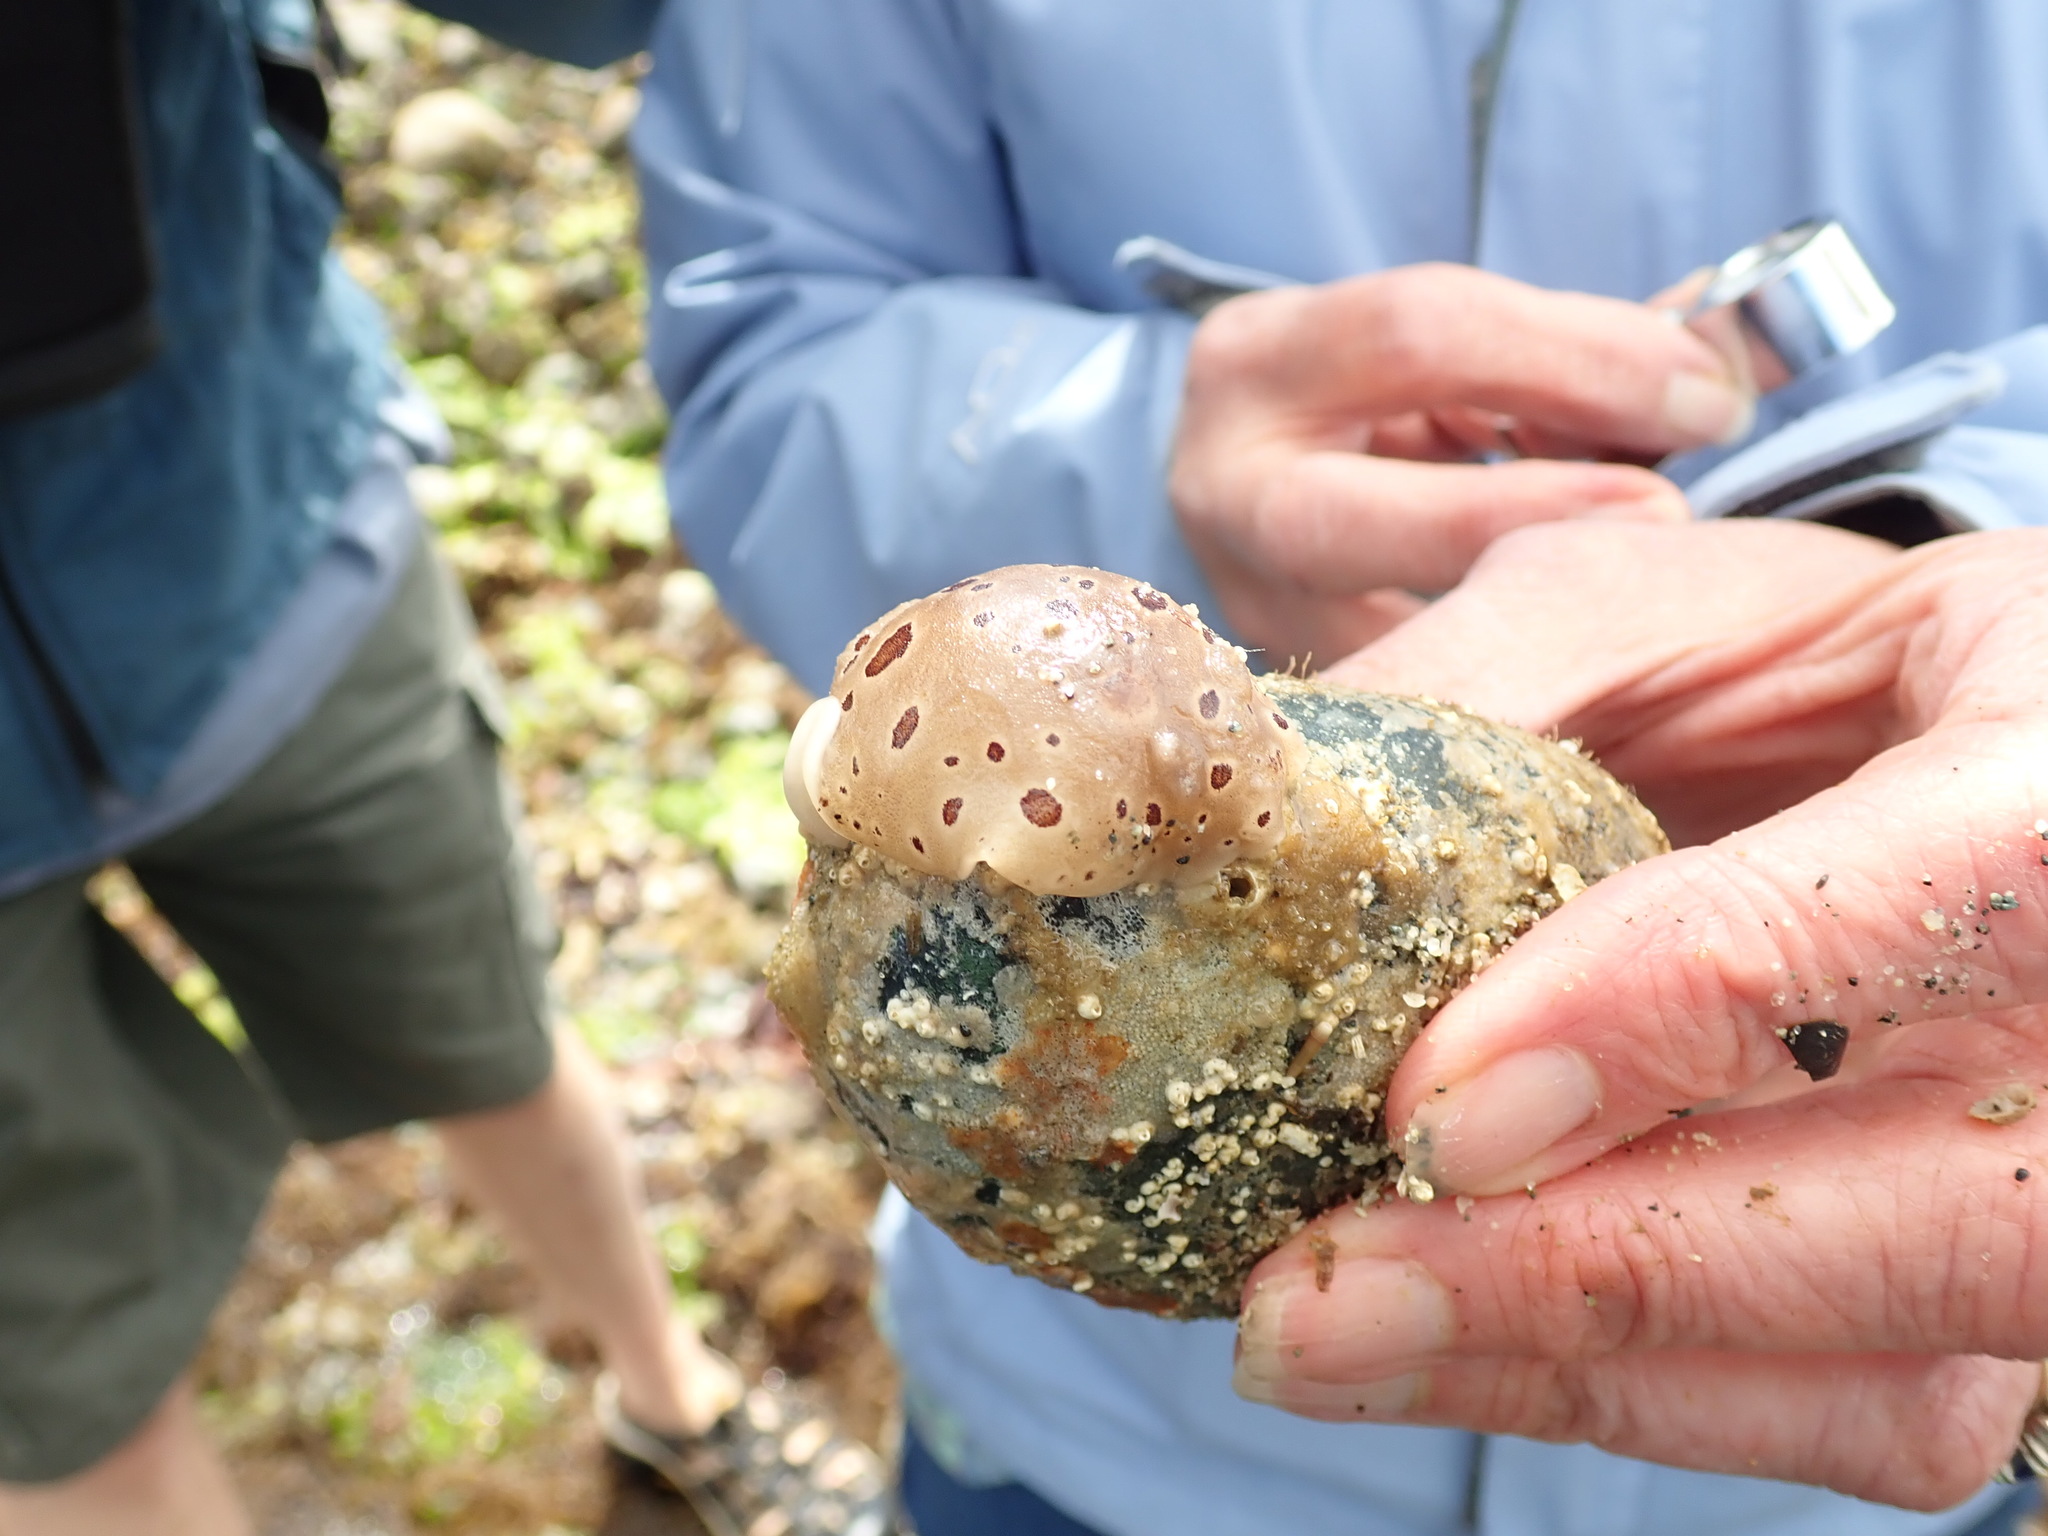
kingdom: Animalia
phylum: Mollusca
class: Gastropoda
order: Nudibranchia
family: Discodorididae
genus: Diaulula
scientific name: Diaulula odonoghuei
